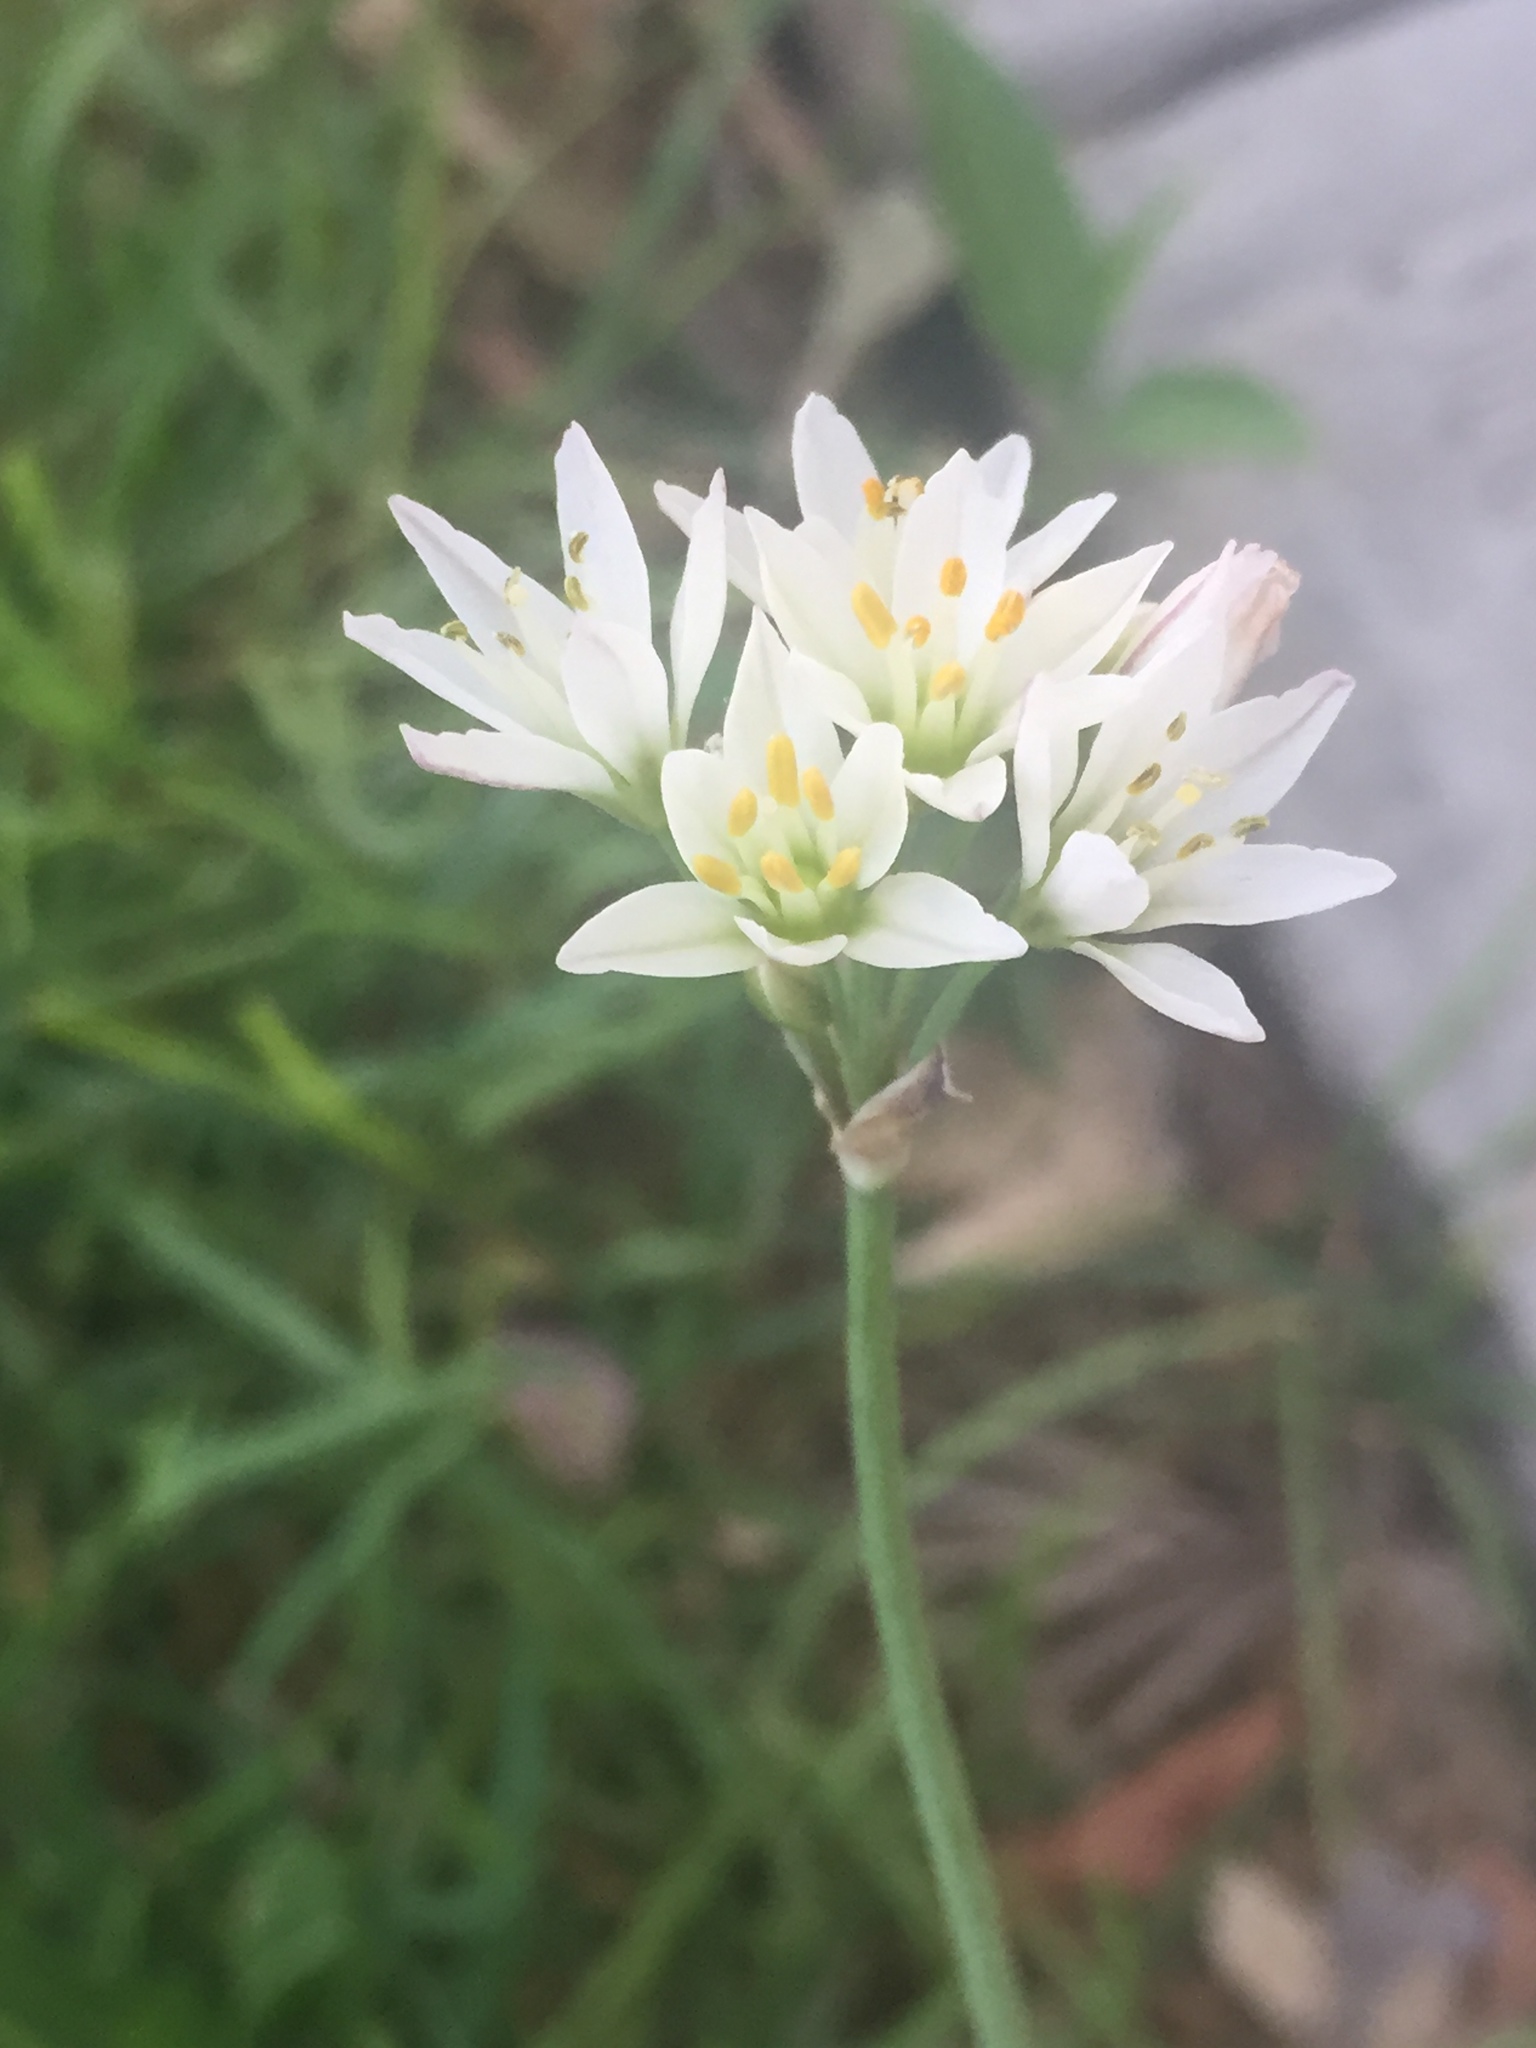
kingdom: Plantae
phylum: Tracheophyta
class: Liliopsida
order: Asparagales
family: Amaryllidaceae
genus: Nothoscordum
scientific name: Nothoscordum gracile
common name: Slender false garlic
